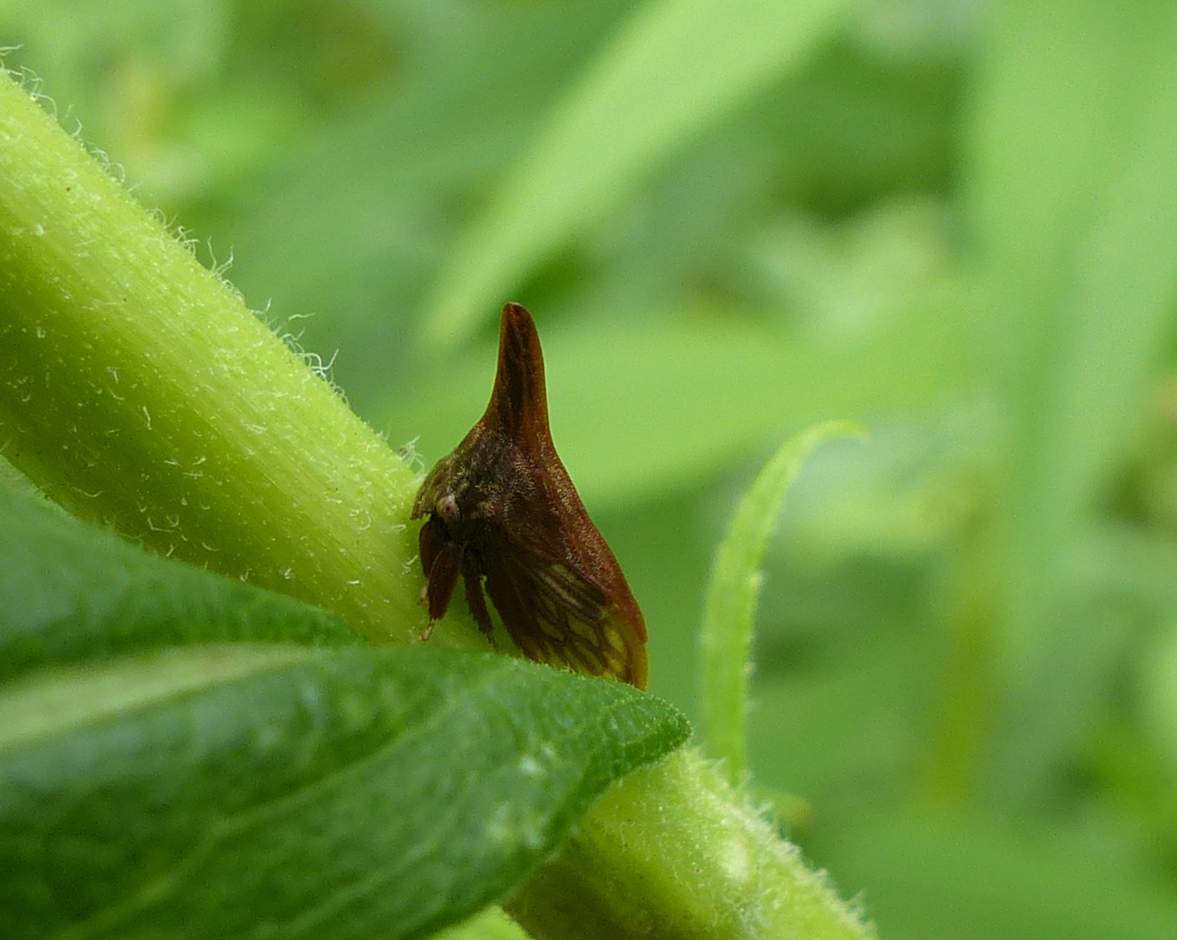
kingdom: Animalia
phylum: Arthropoda
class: Insecta
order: Hemiptera
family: Membracidae
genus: Enchenopa
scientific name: Enchenopa latipes
